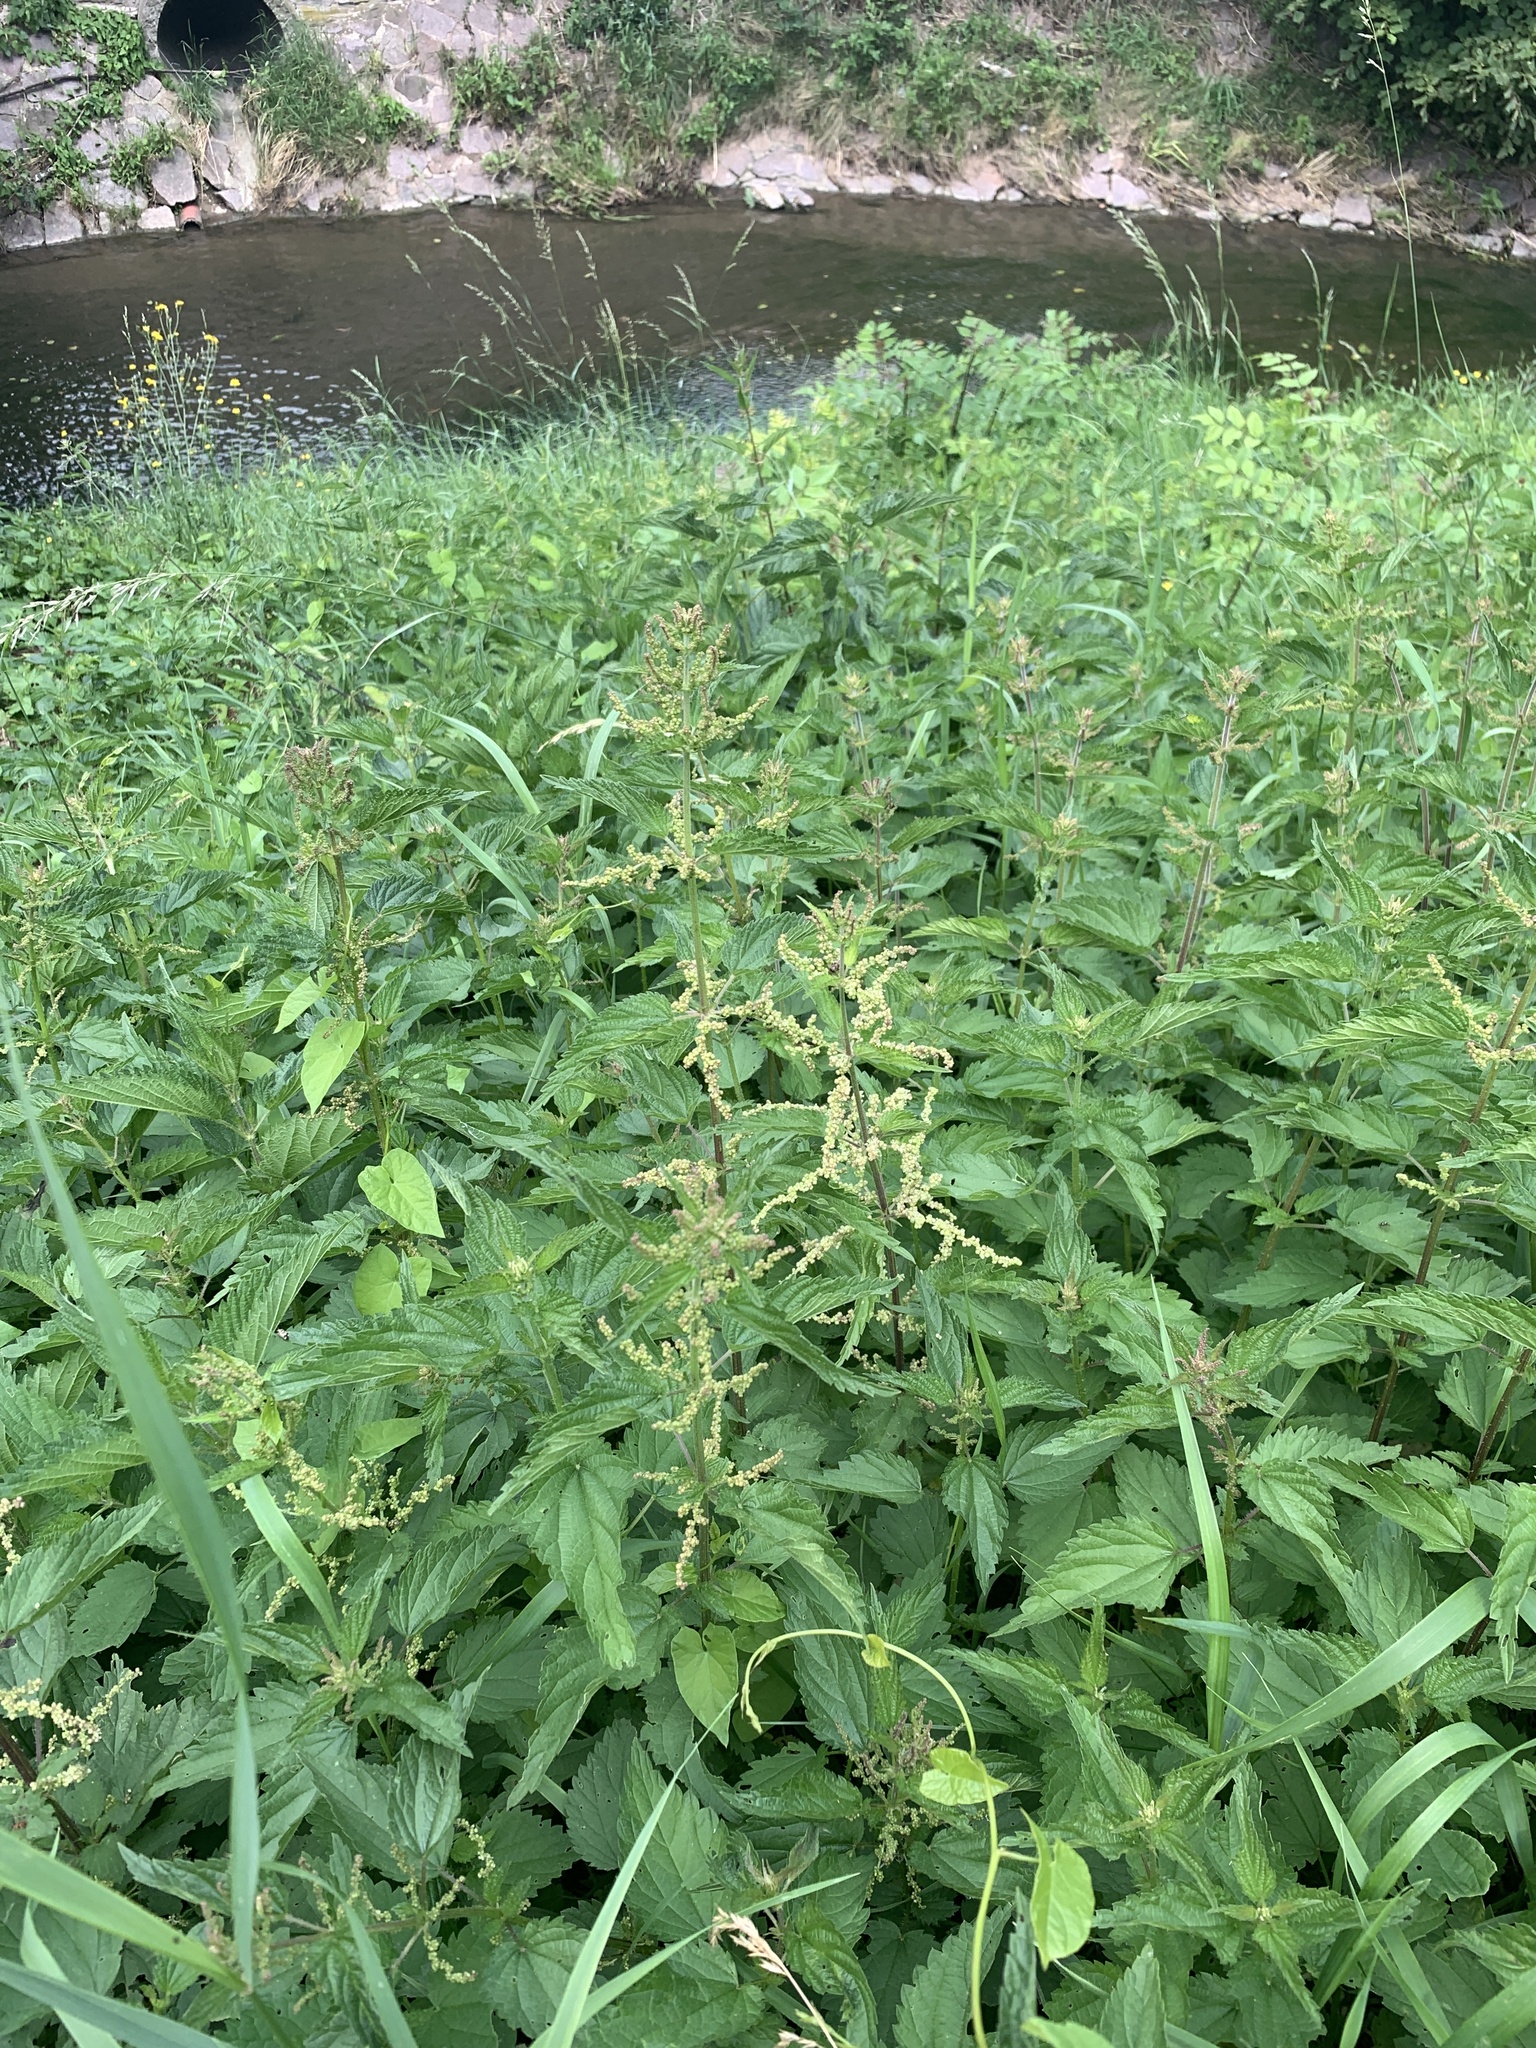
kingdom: Plantae
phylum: Tracheophyta
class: Magnoliopsida
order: Rosales
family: Urticaceae
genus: Urtica
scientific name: Urtica dioica
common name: Common nettle
